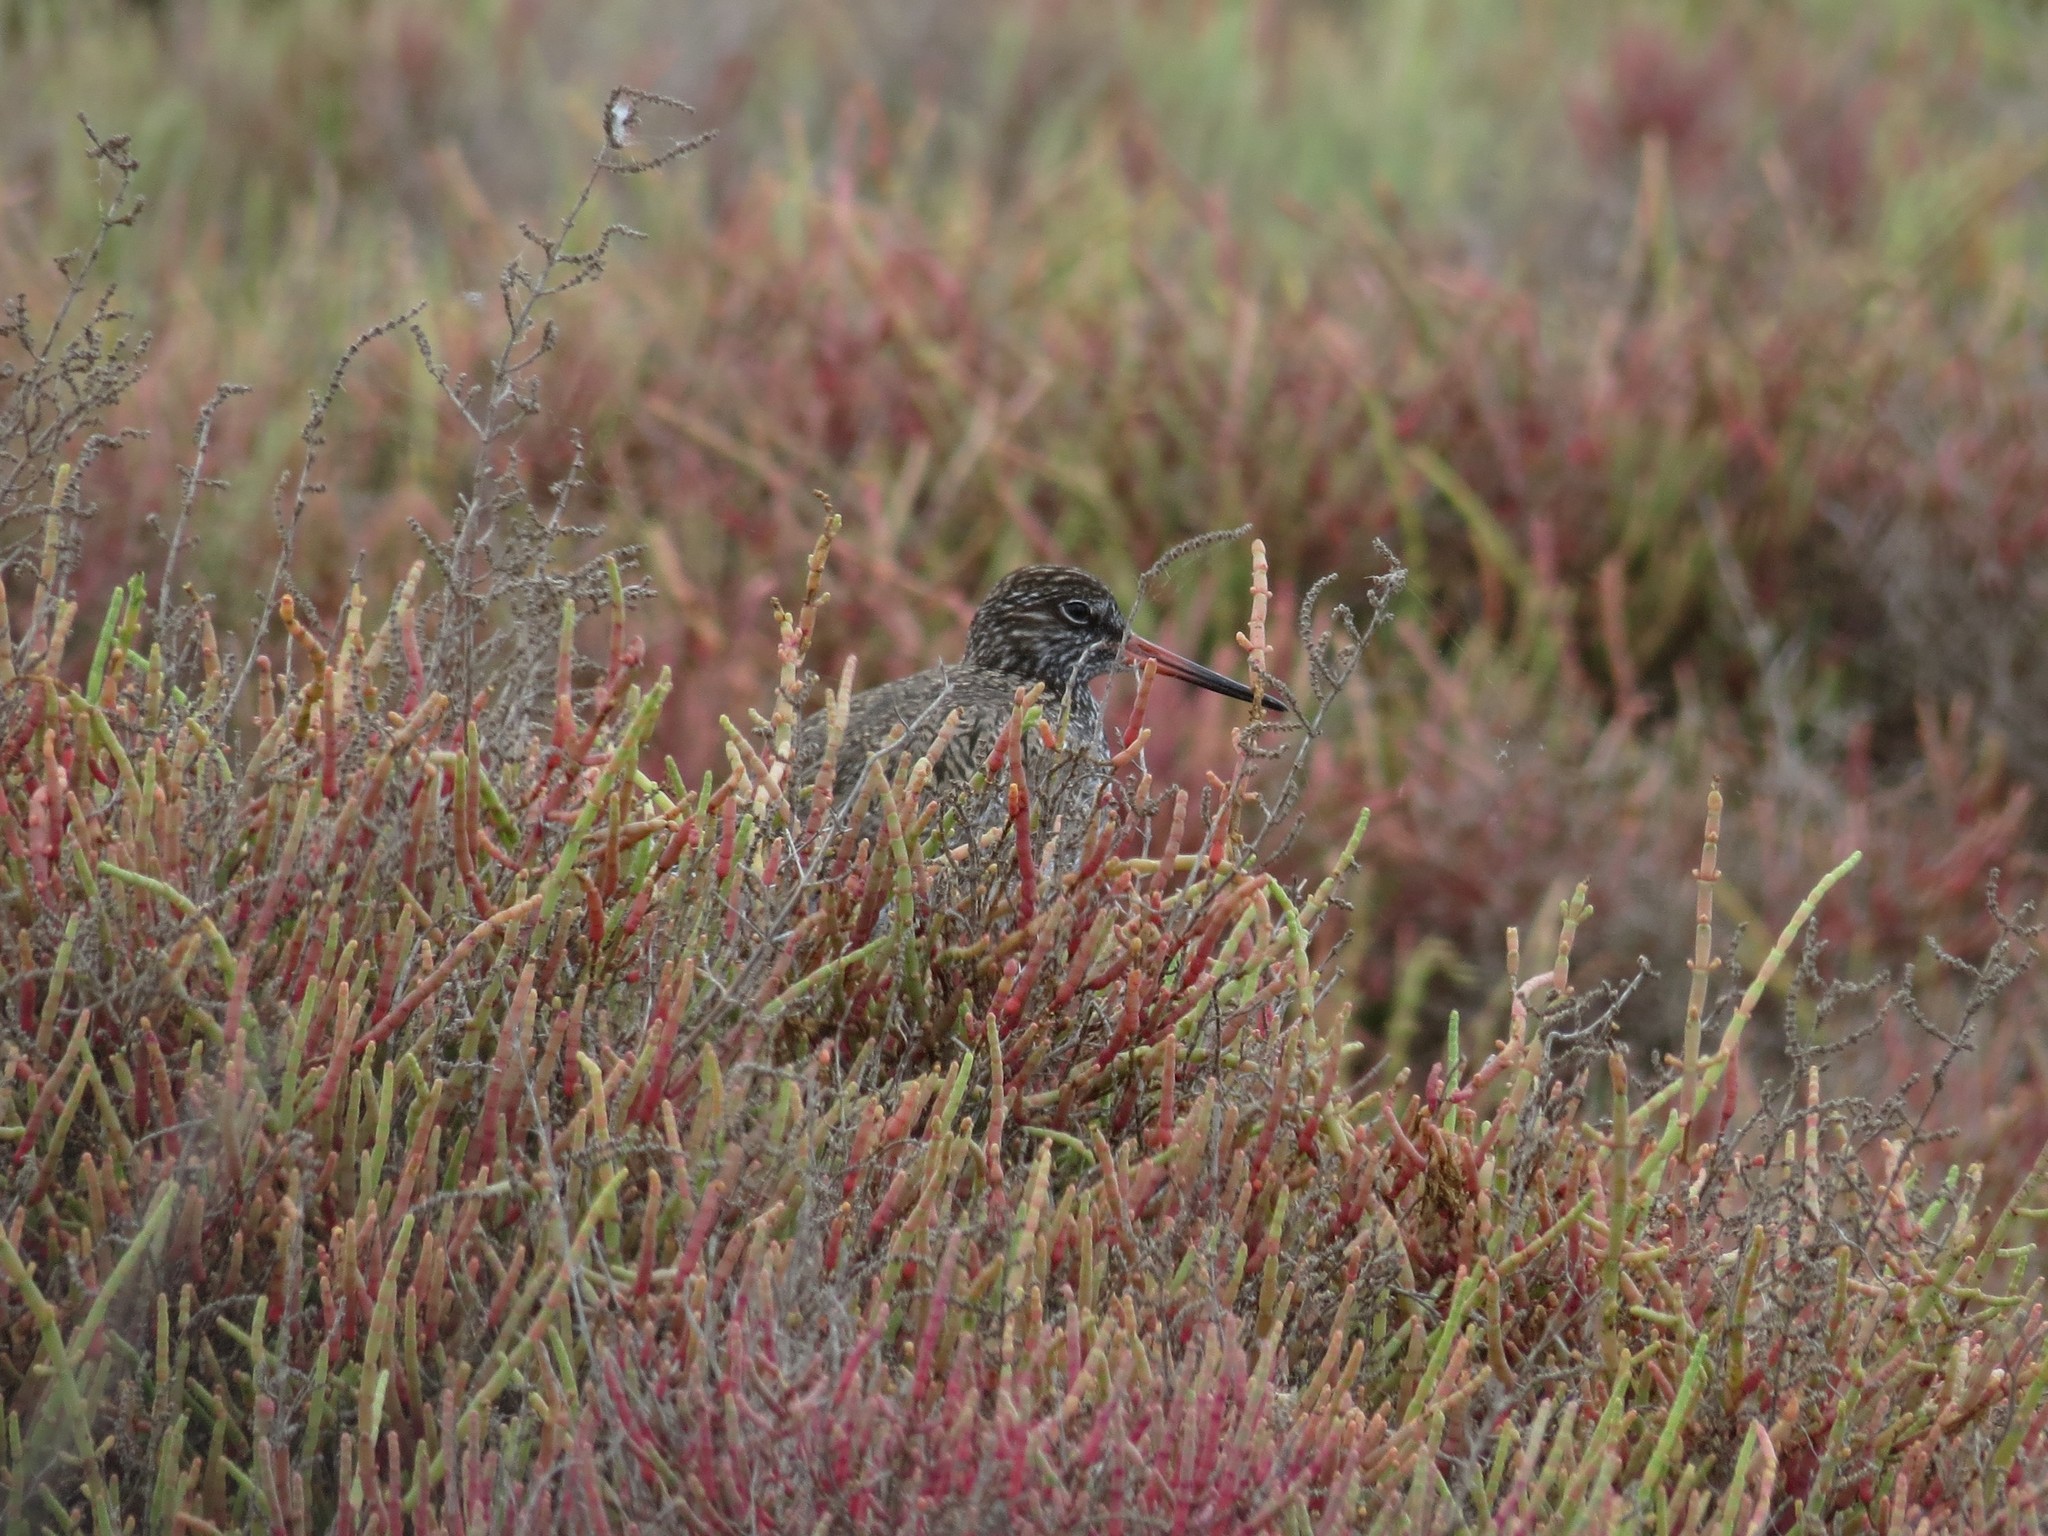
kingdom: Animalia
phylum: Chordata
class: Aves
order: Charadriiformes
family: Scolopacidae
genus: Tringa
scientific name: Tringa totanus
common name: Common redshank
